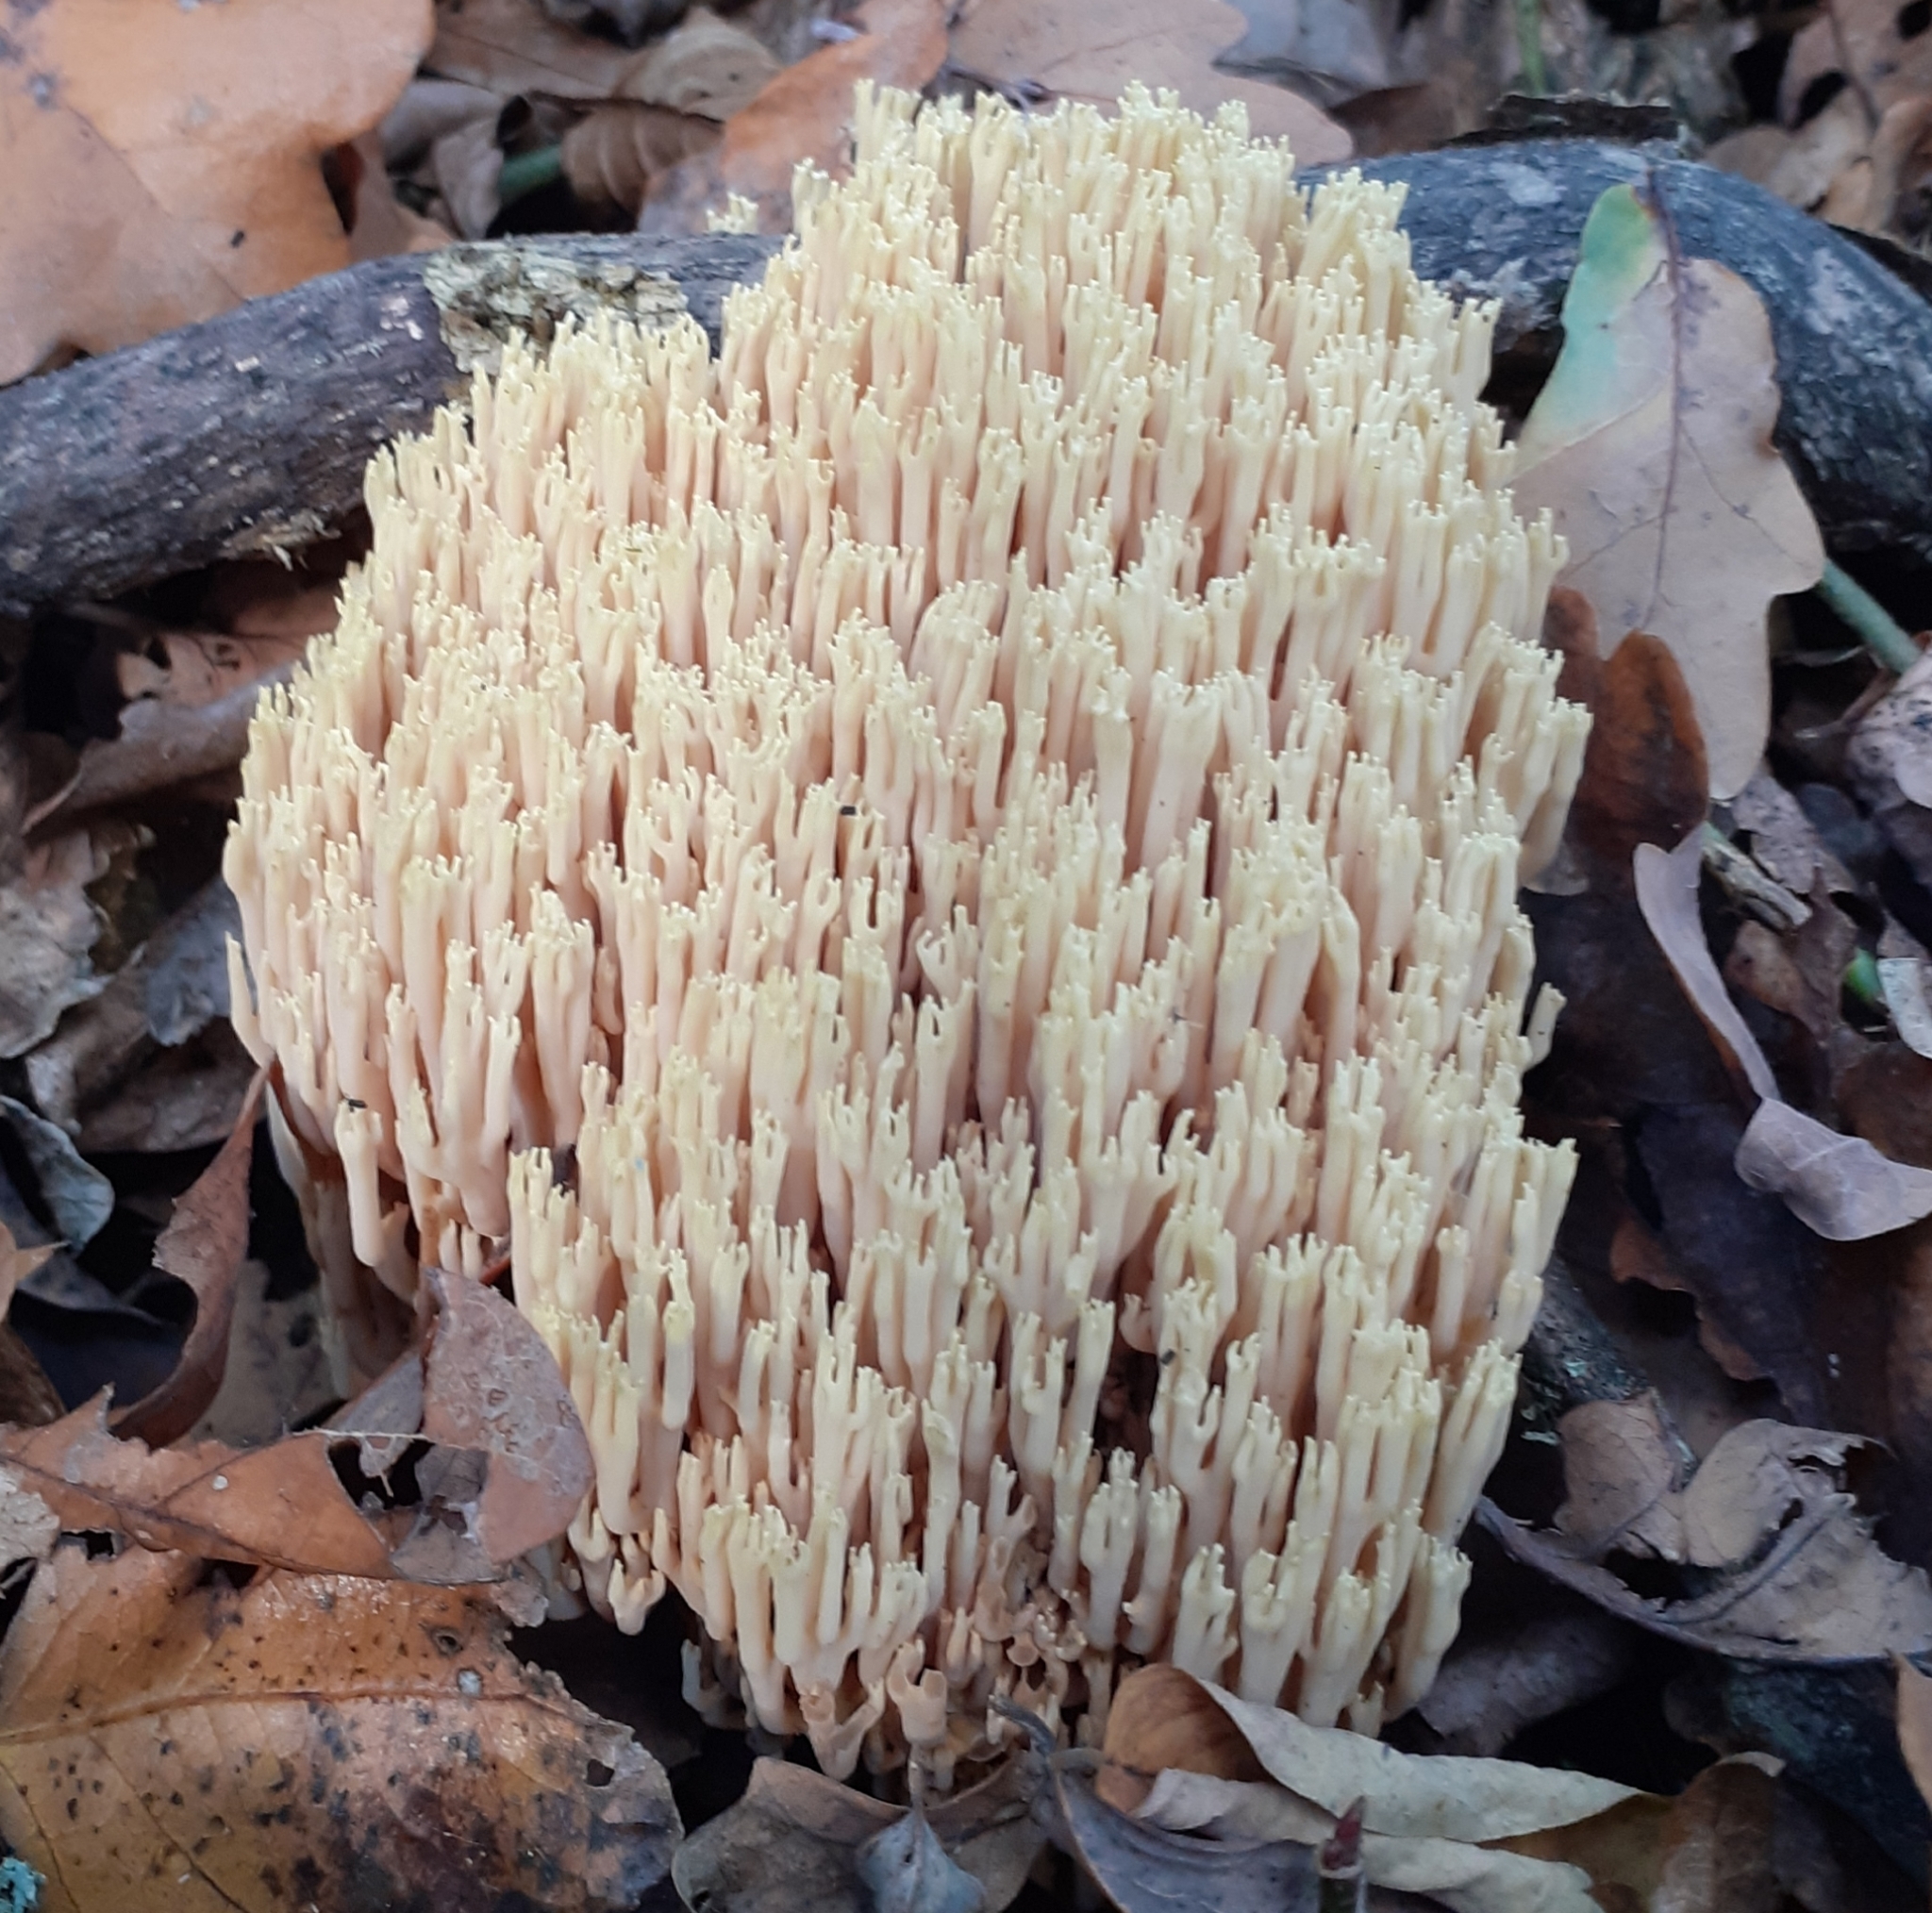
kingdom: Fungi
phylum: Basidiomycota
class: Agaricomycetes
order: Gomphales
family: Gomphaceae
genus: Ramaria
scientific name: Ramaria stricta
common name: Upright coral
